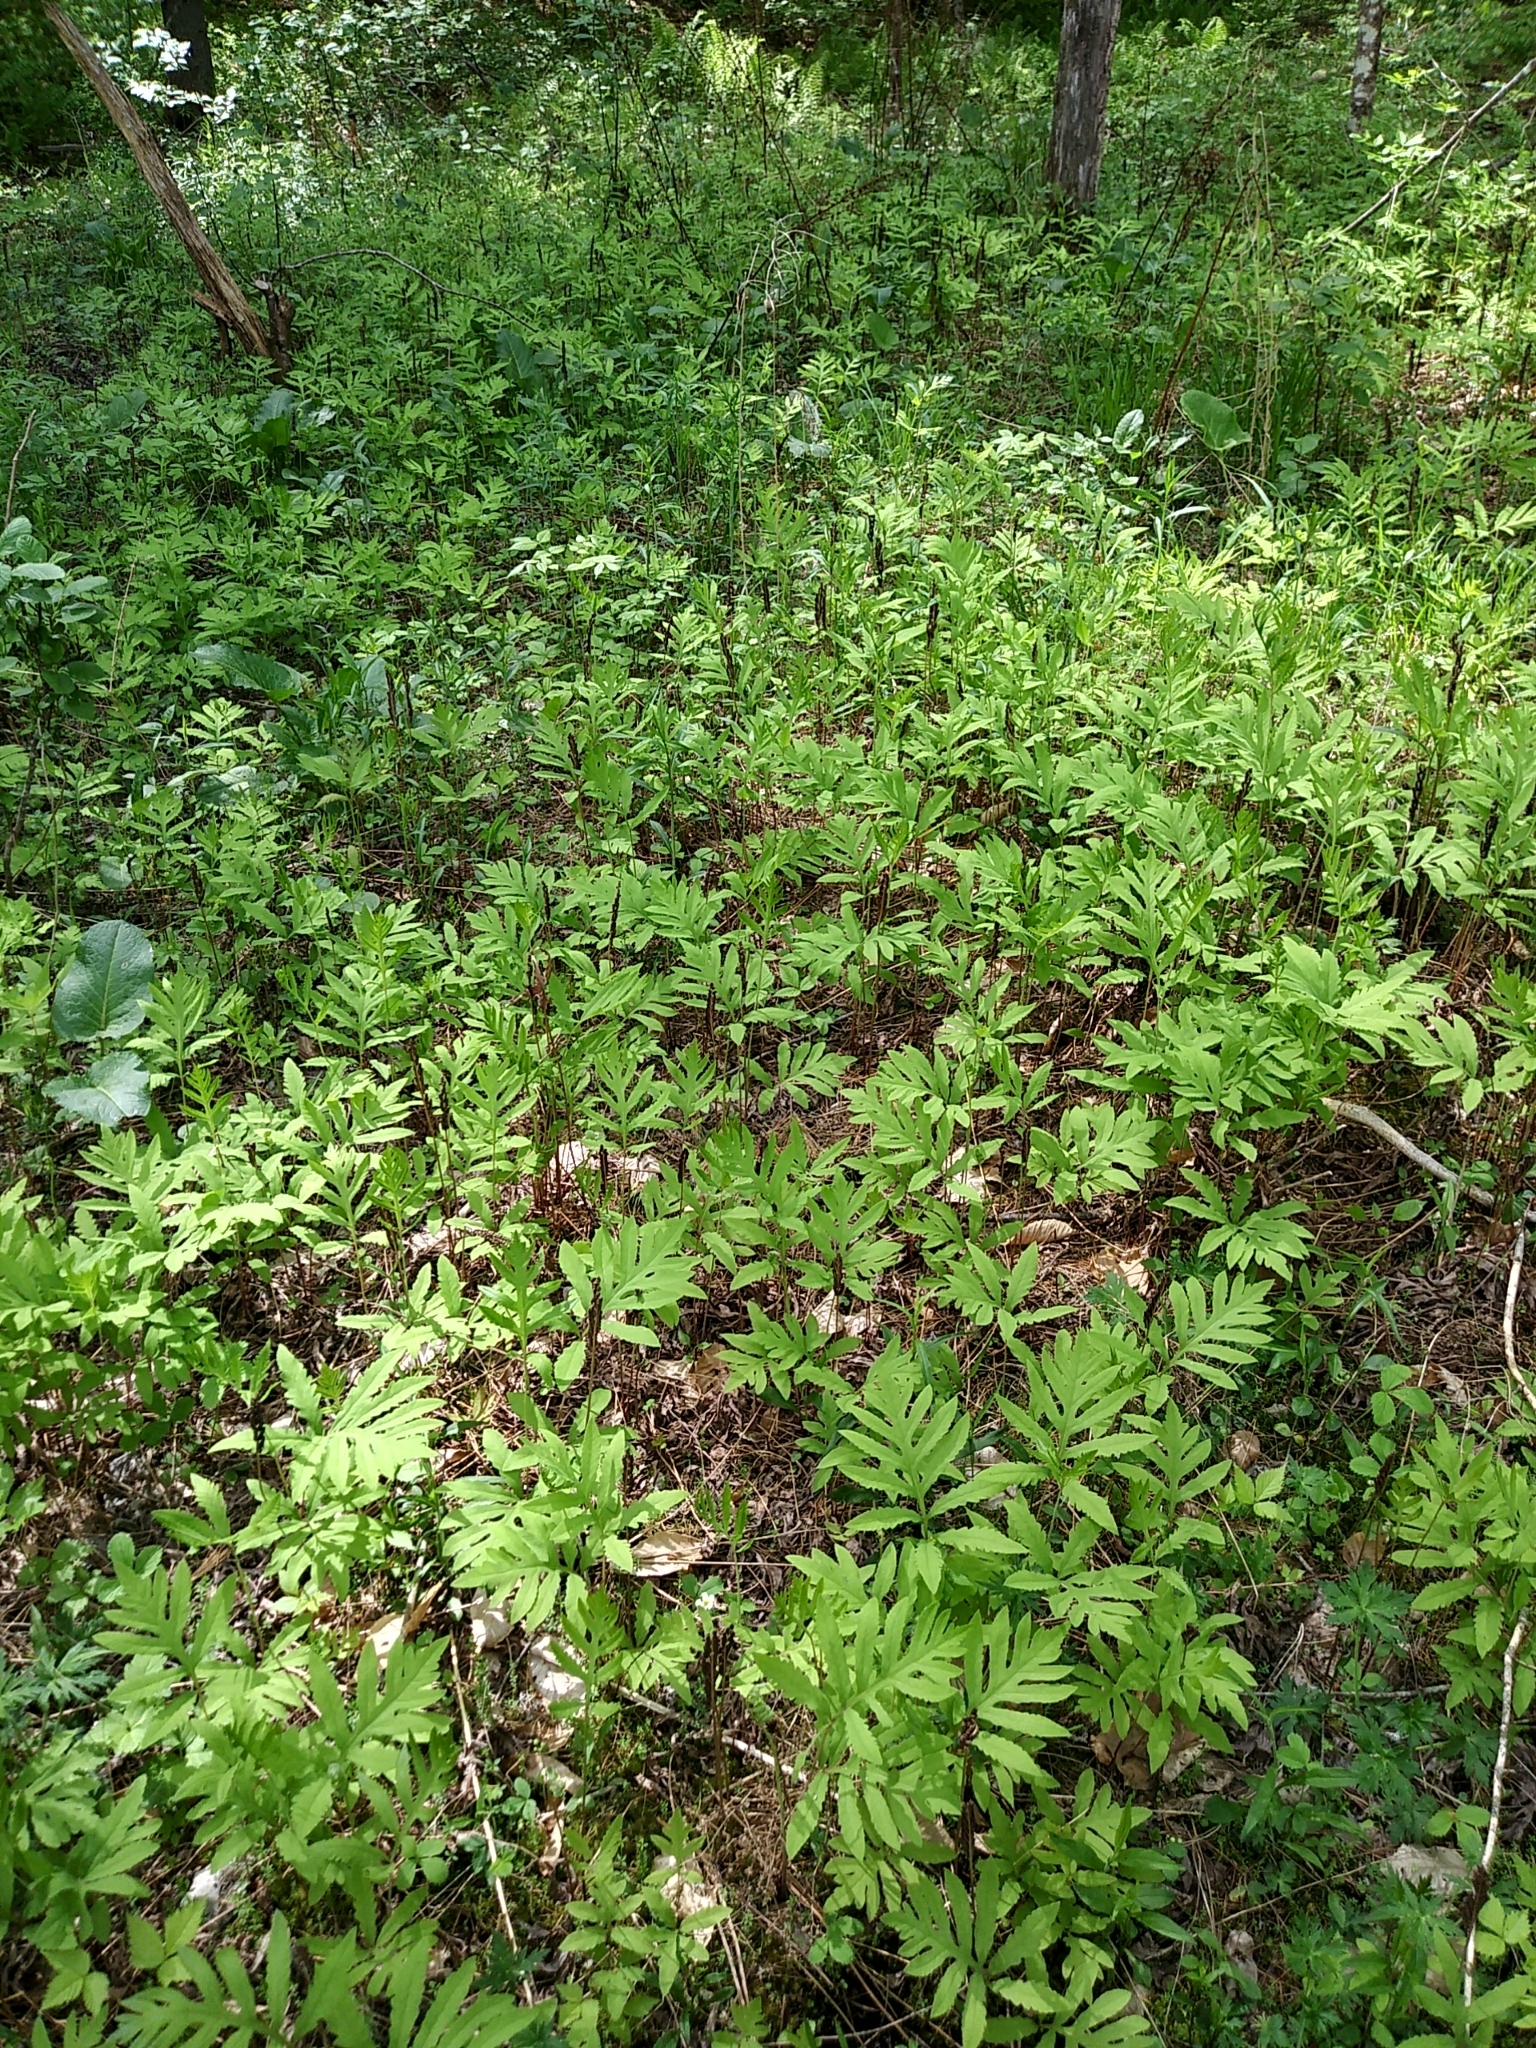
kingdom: Plantae
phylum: Tracheophyta
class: Polypodiopsida
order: Polypodiales
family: Onocleaceae
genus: Onoclea
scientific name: Onoclea sensibilis
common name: Sensitive fern
